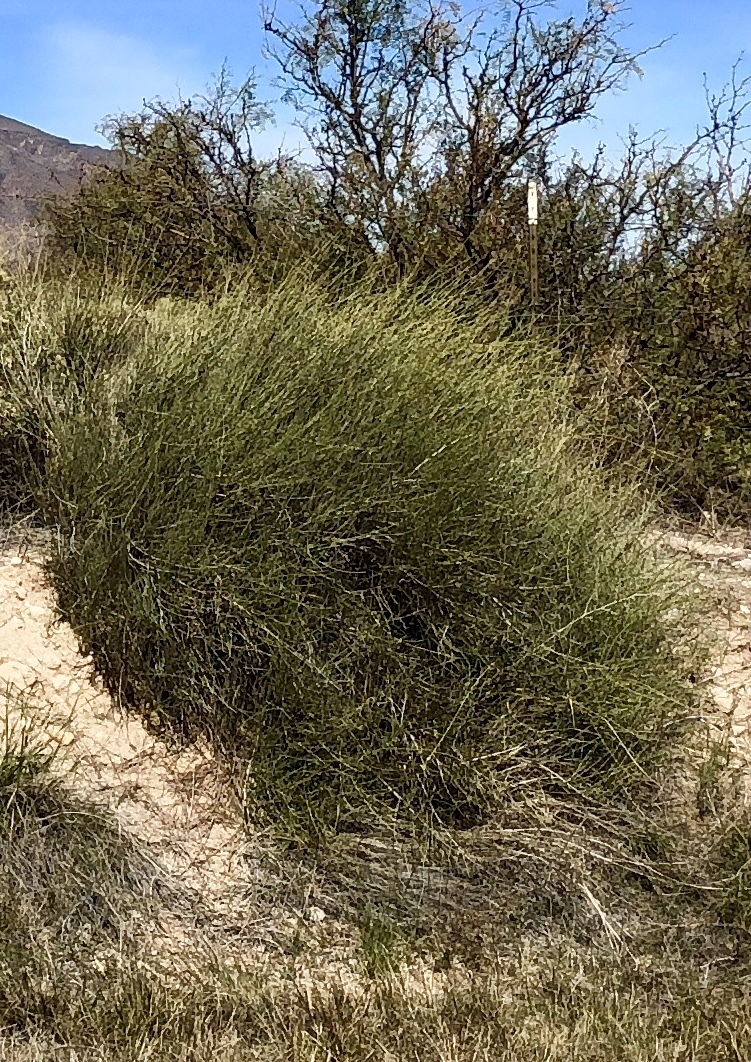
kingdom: Plantae
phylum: Tracheophyta
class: Gnetopsida
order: Ephedrales
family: Ephedraceae
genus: Ephedra
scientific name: Ephedra trifurca
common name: Mexican-tea
